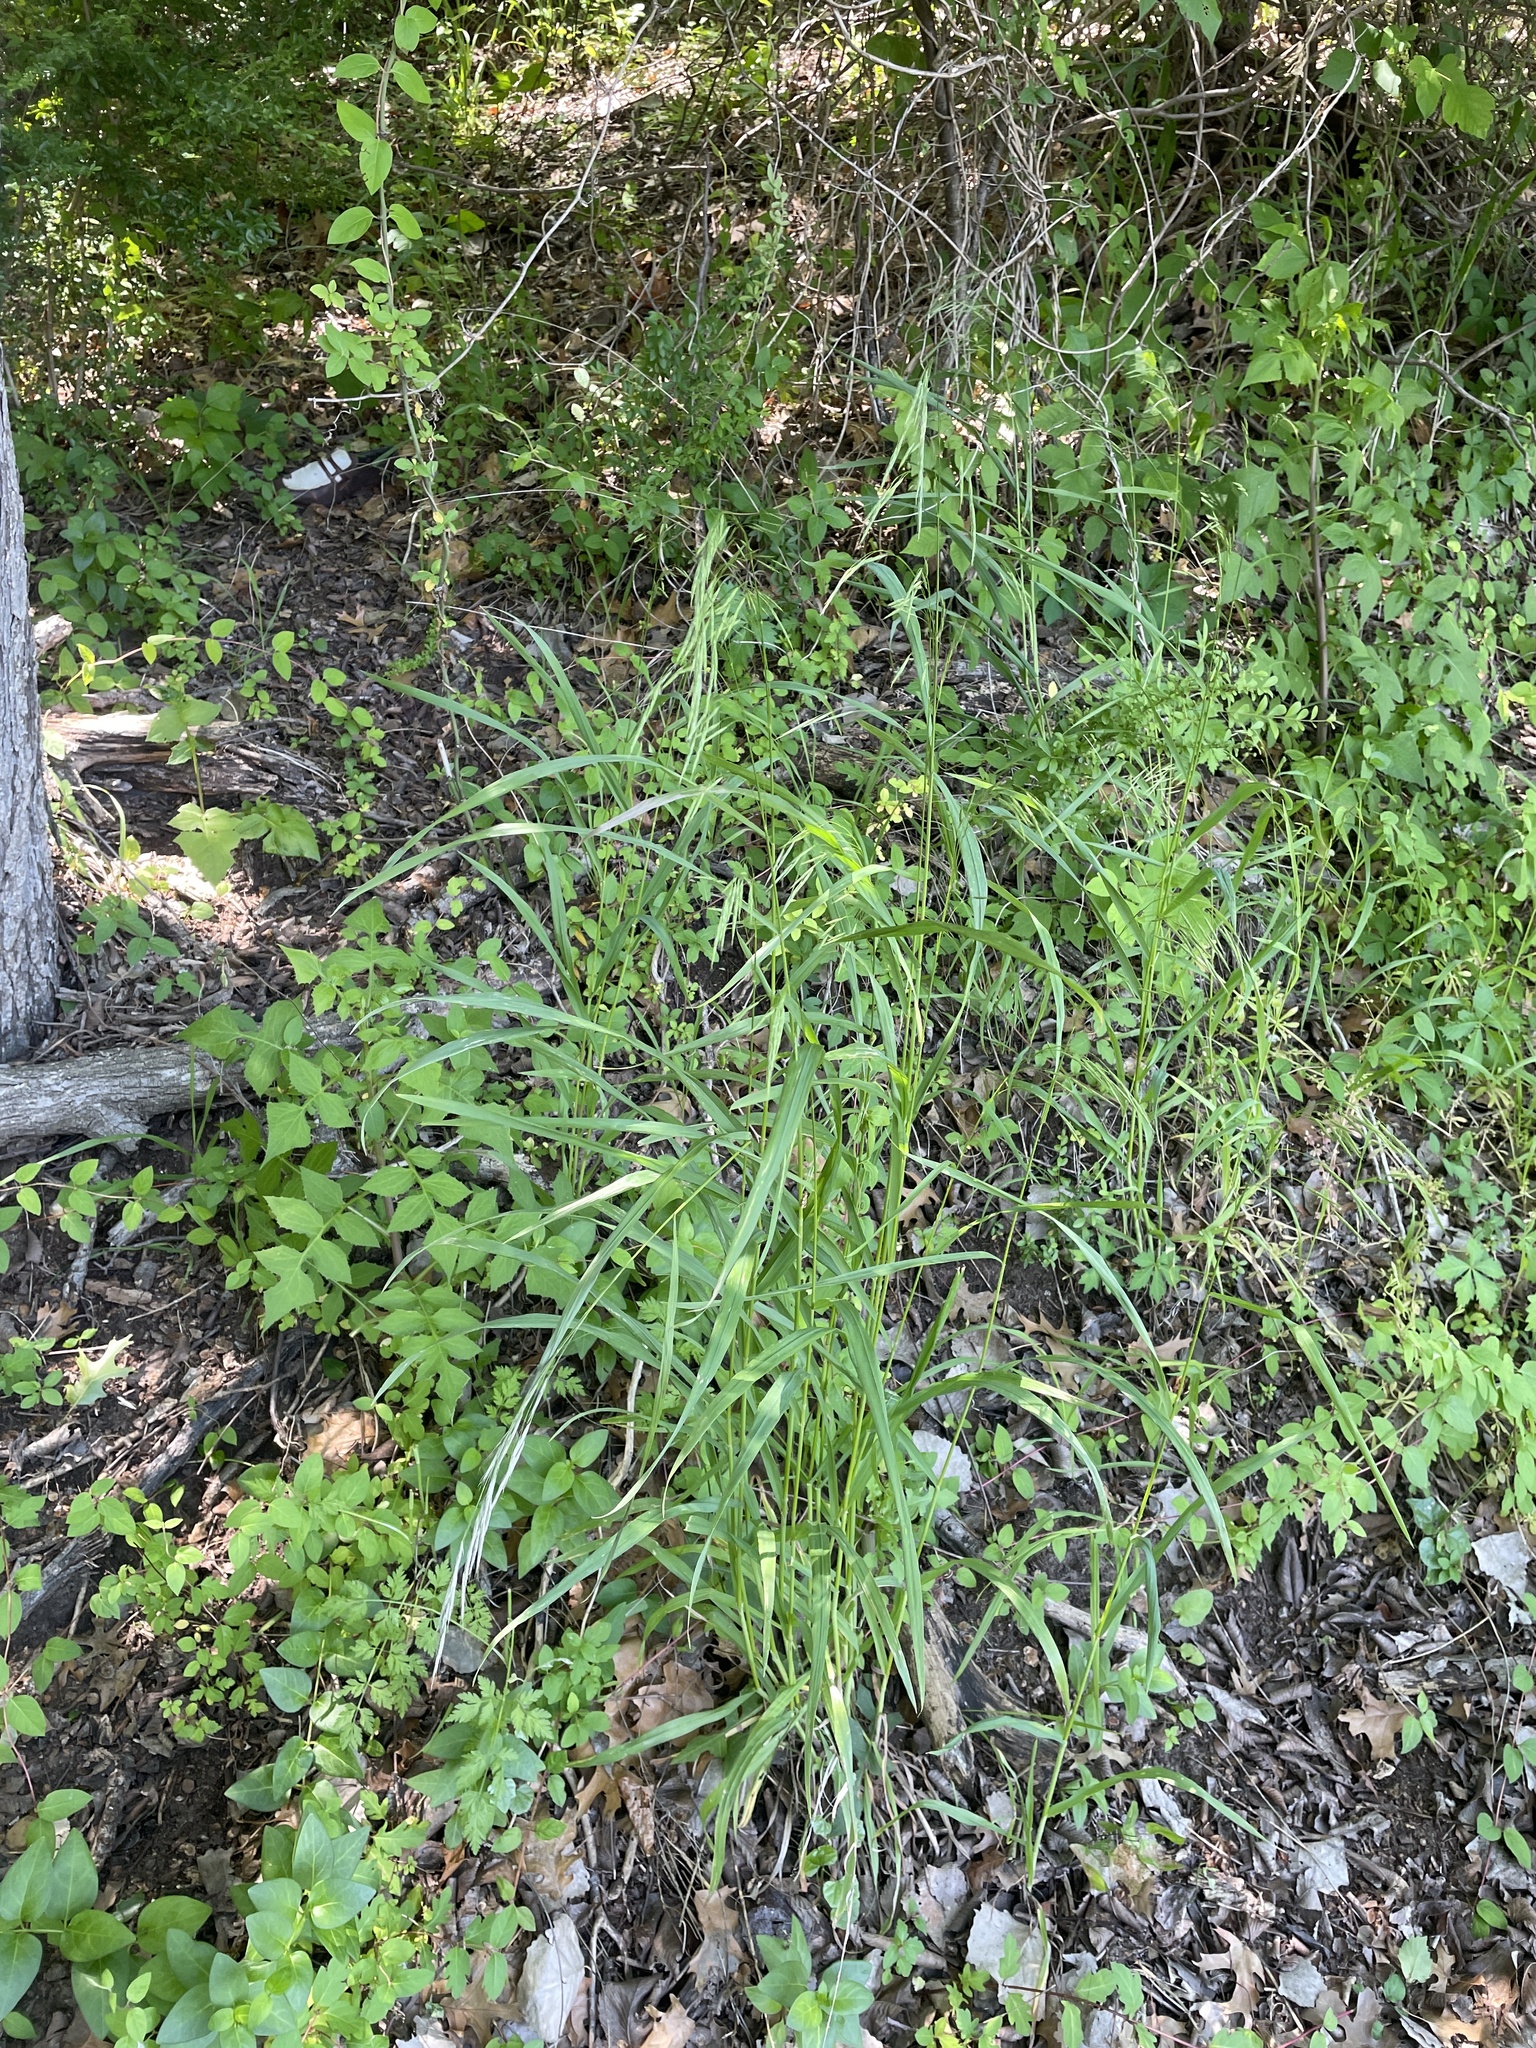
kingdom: Plantae
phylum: Tracheophyta
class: Liliopsida
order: Poales
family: Poaceae
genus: Bromus
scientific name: Bromus pubescens
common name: Hairy wood brome grass
